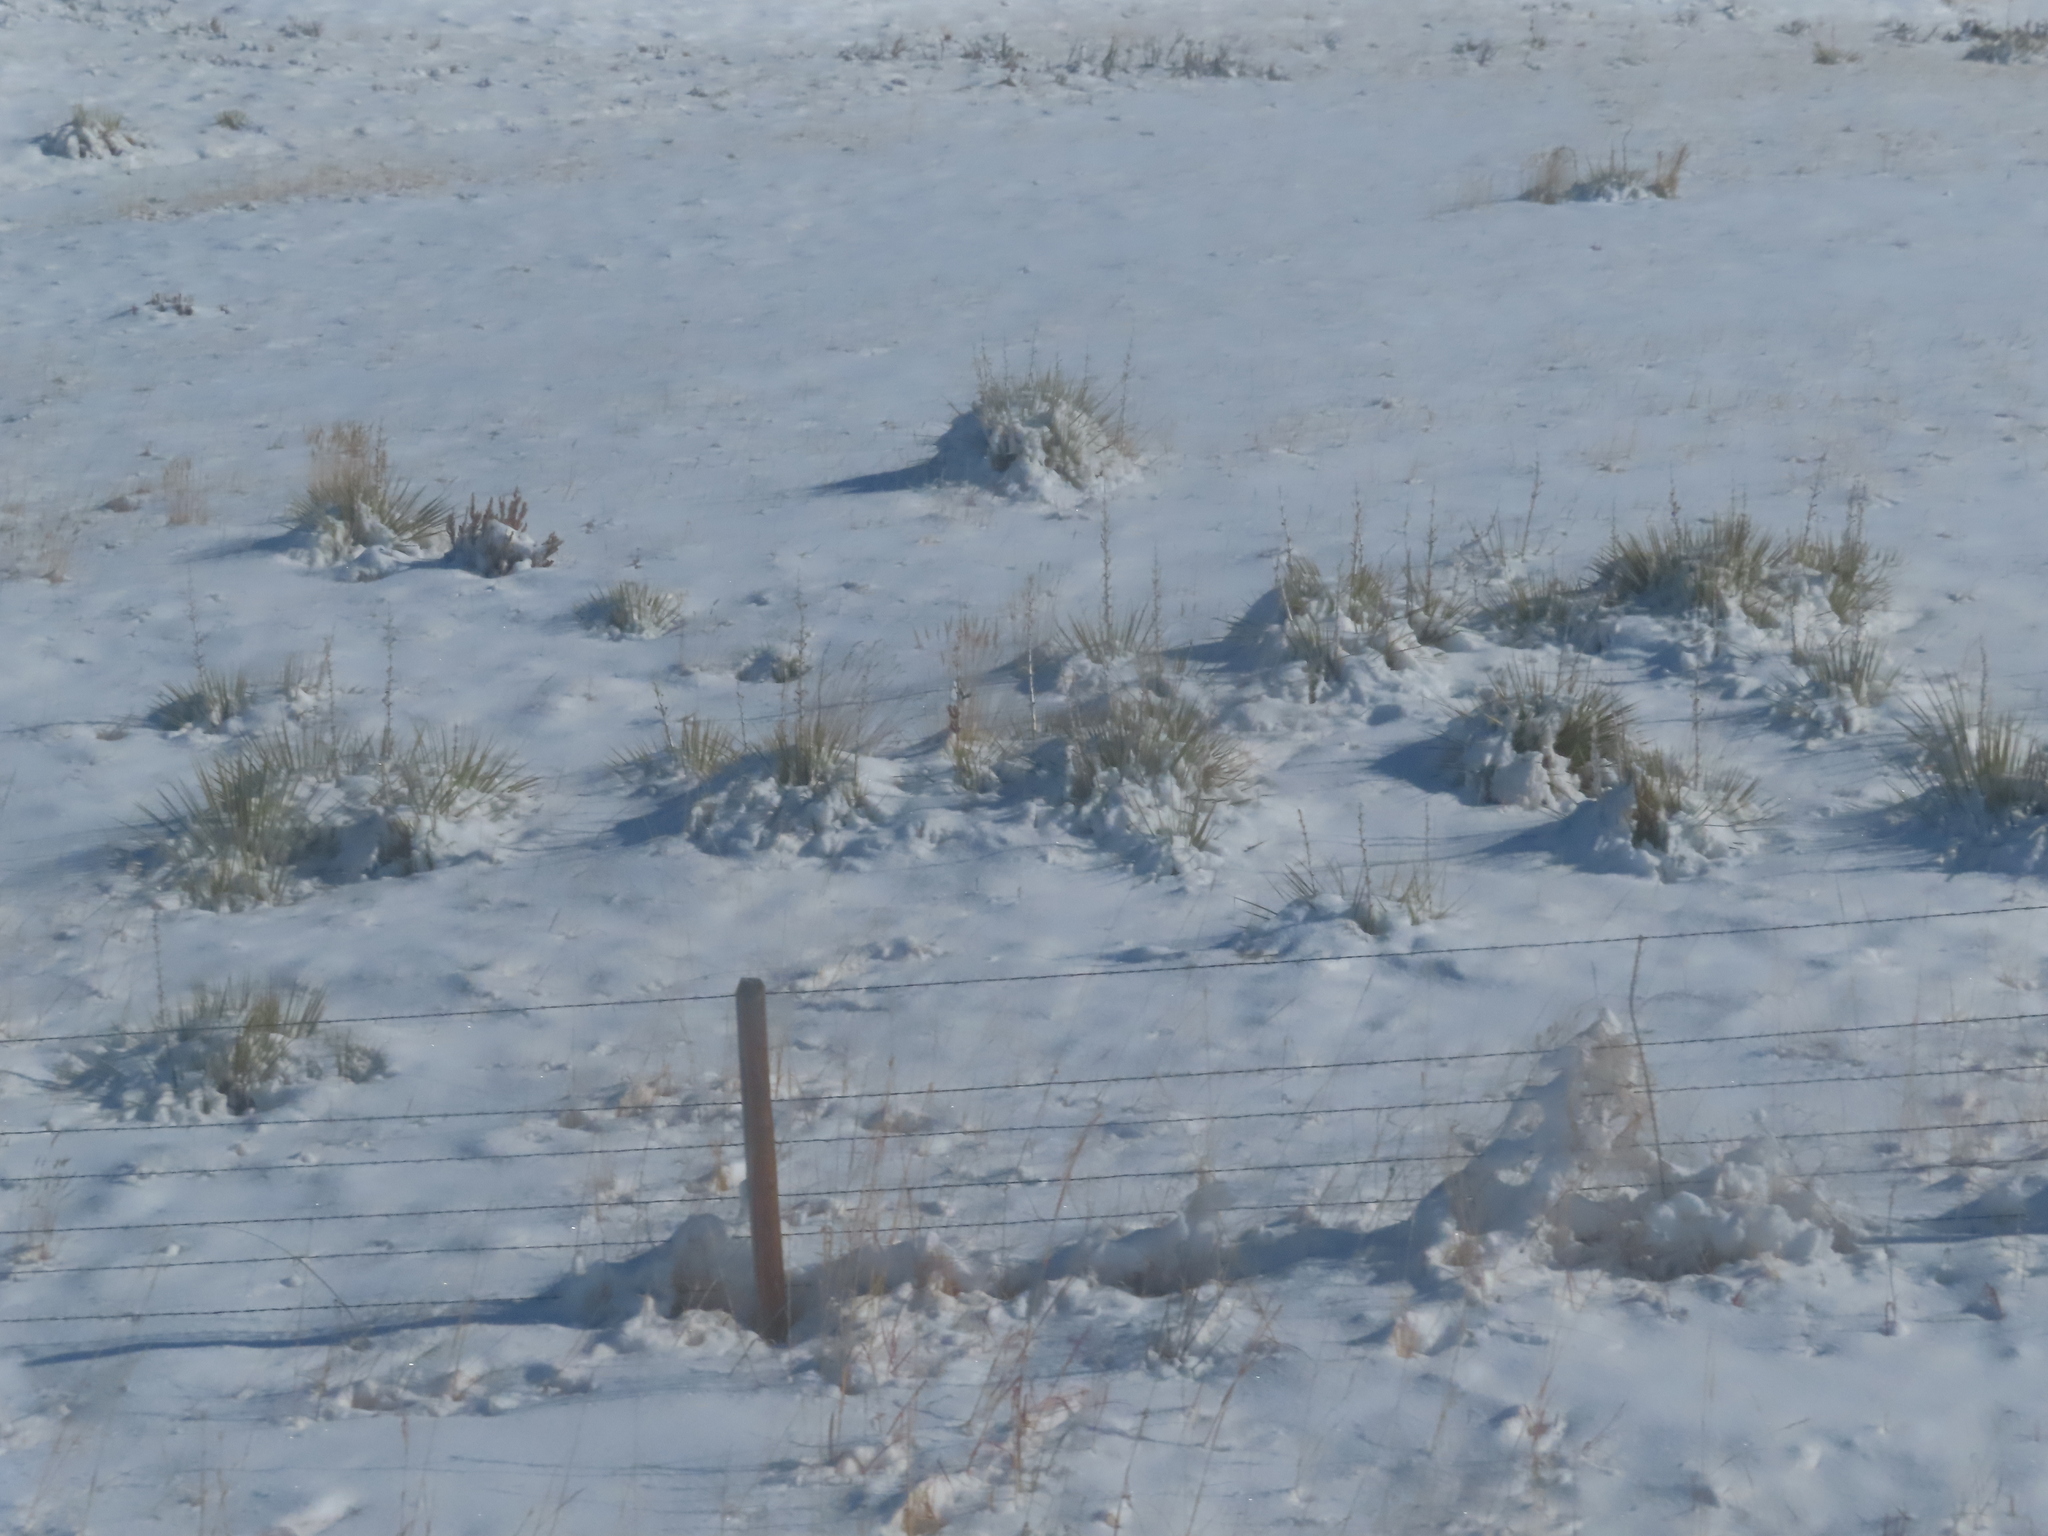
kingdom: Plantae
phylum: Tracheophyta
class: Liliopsida
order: Asparagales
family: Asparagaceae
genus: Yucca
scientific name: Yucca glauca
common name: Great plains yucca
